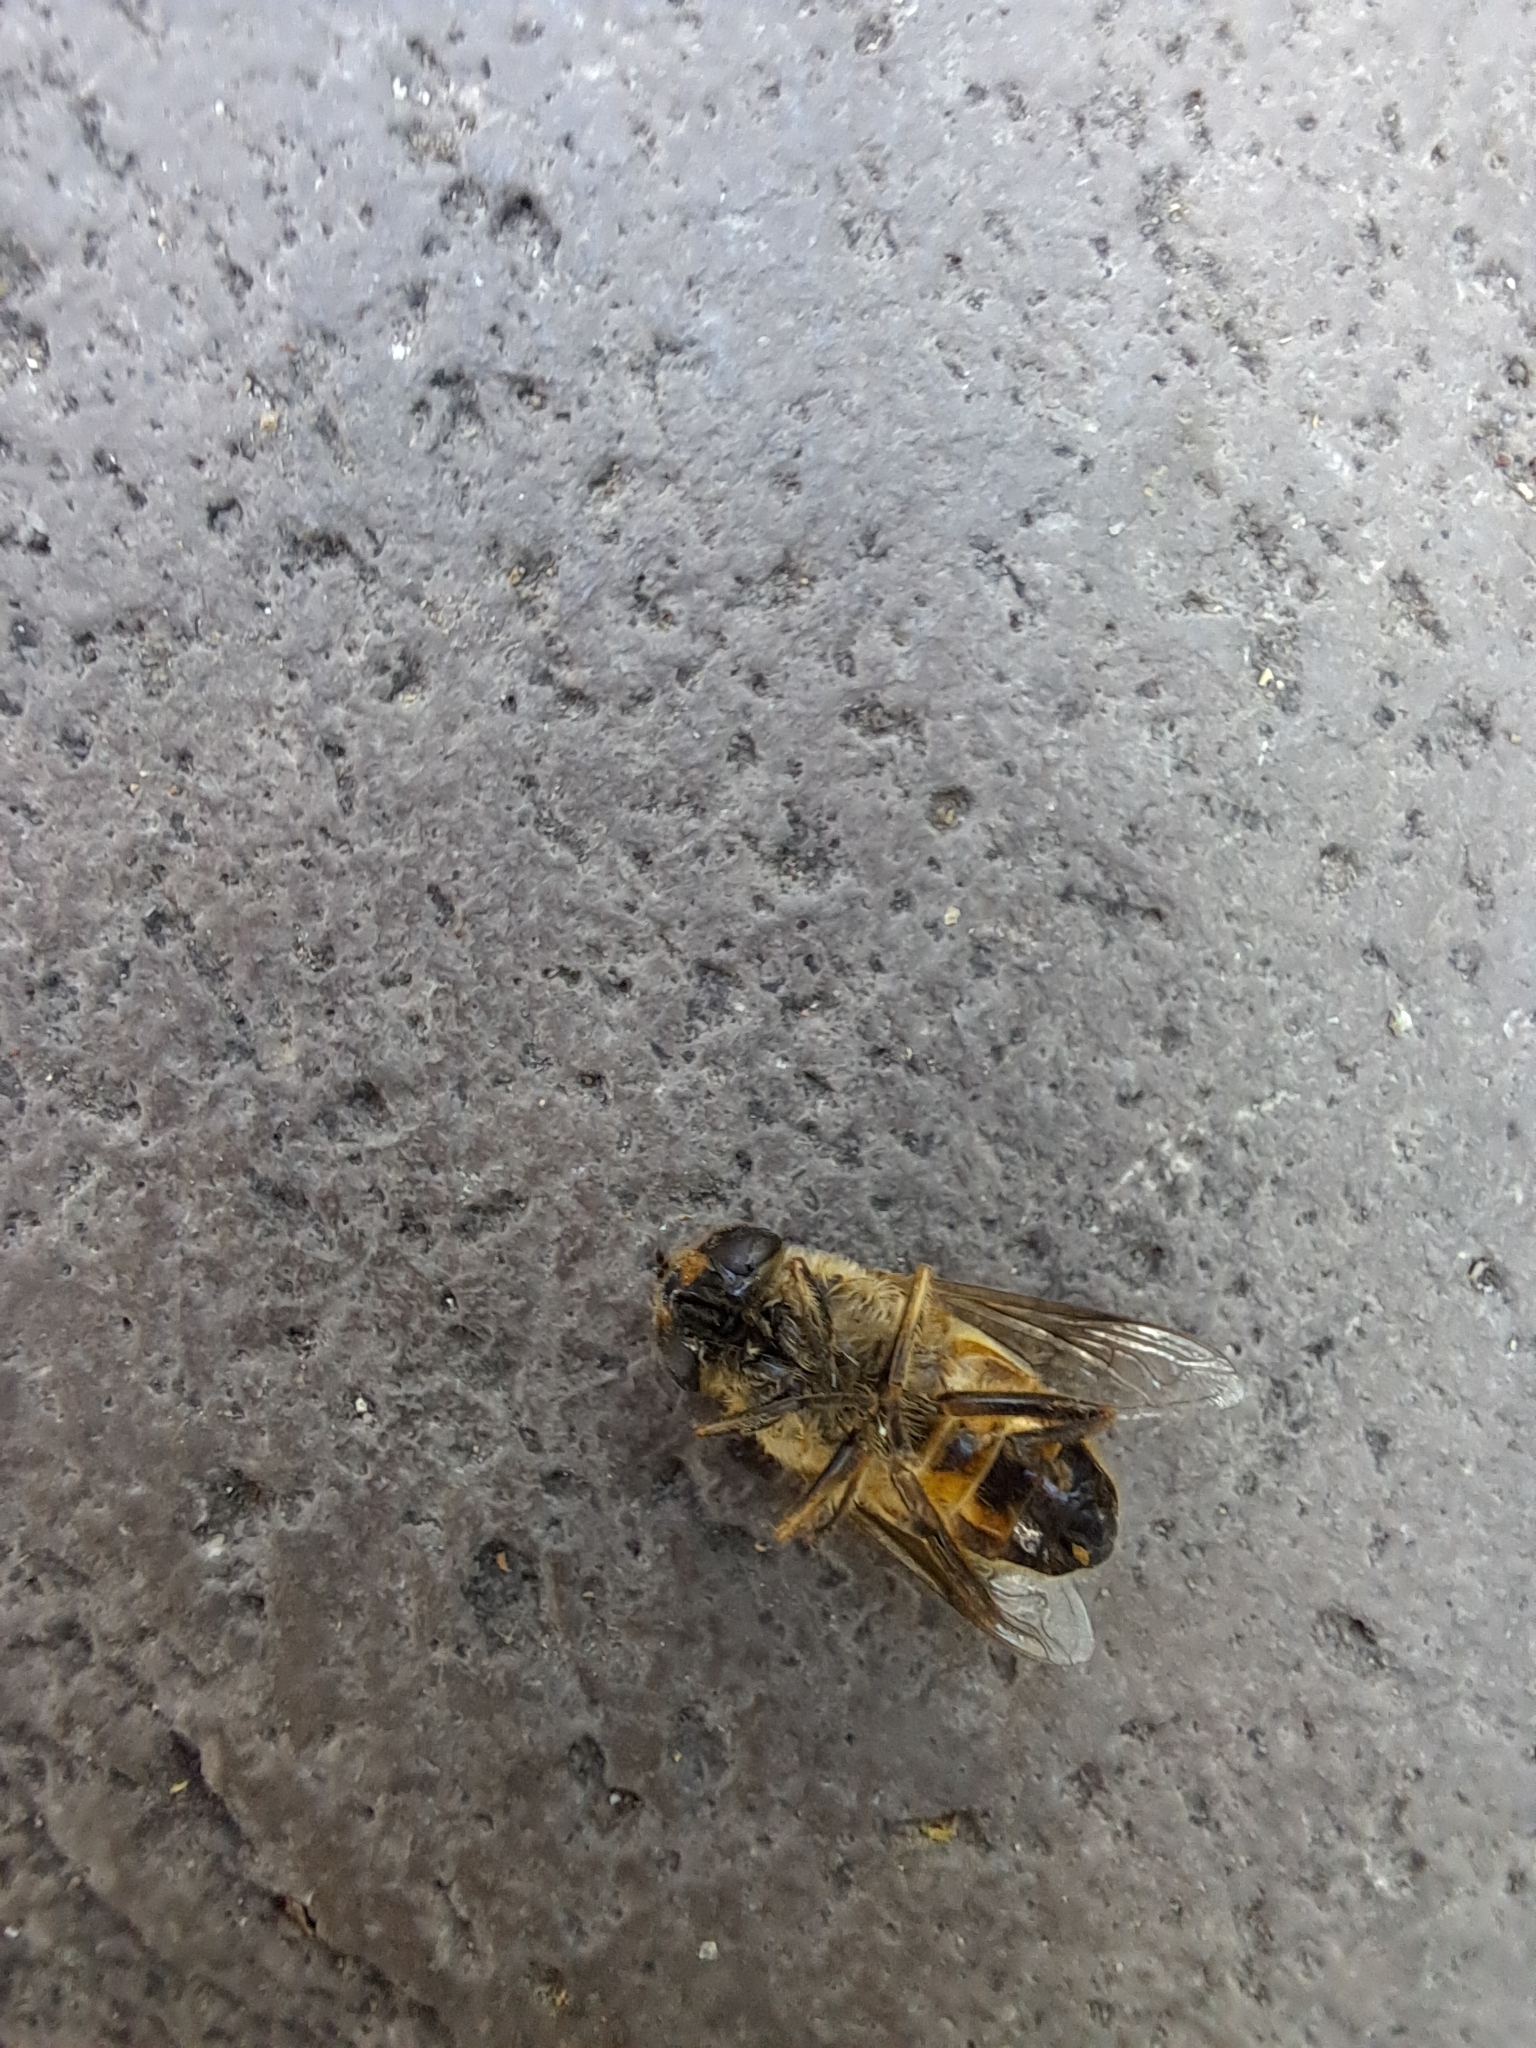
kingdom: Animalia
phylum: Arthropoda
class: Insecta
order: Diptera
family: Syrphidae
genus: Eristalis
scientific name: Eristalis tenax
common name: Drone fly
